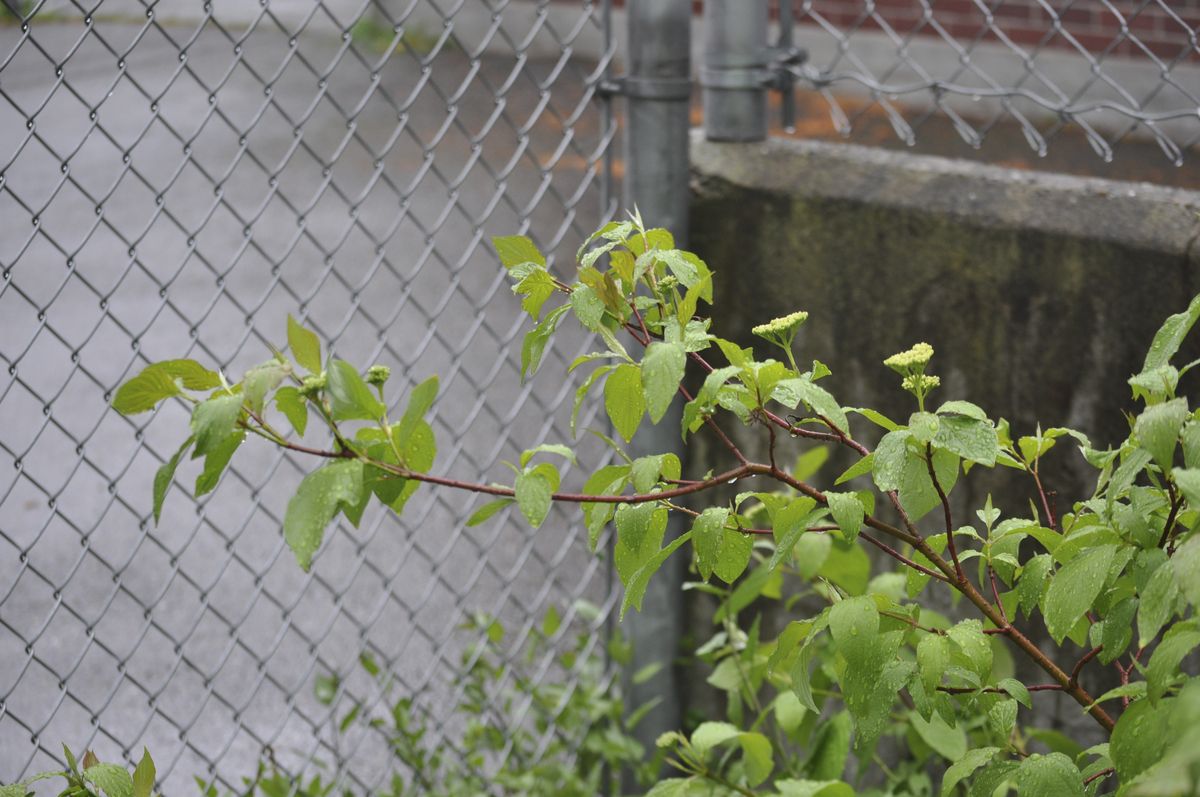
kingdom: Plantae
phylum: Tracheophyta
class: Magnoliopsida
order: Cornales
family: Cornaceae
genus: Cornus
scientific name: Cornus sericea
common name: Red-osier dogwood
